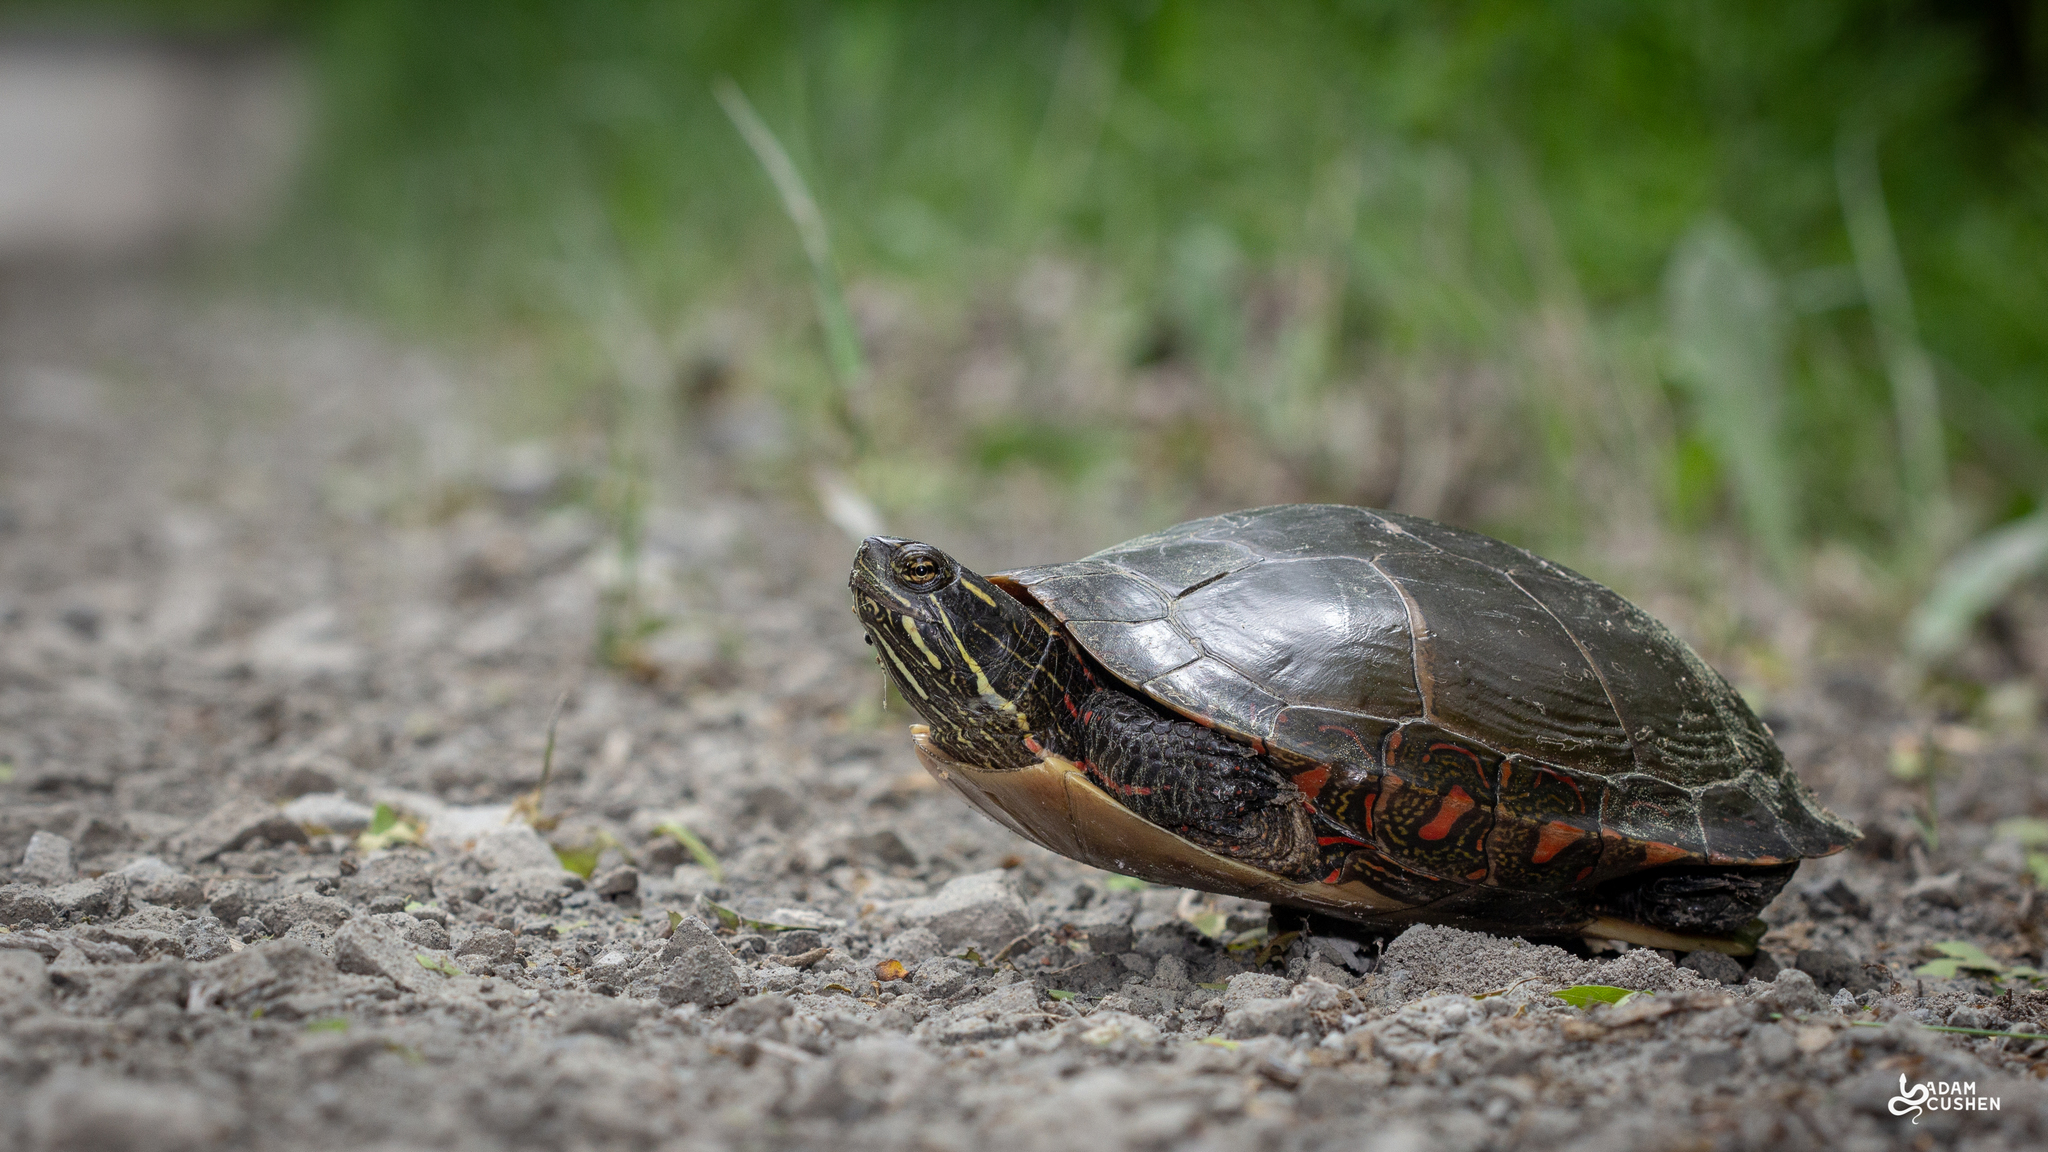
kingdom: Animalia
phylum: Chordata
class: Testudines
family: Emydidae
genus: Chrysemys
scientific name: Chrysemys picta
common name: Painted turtle
